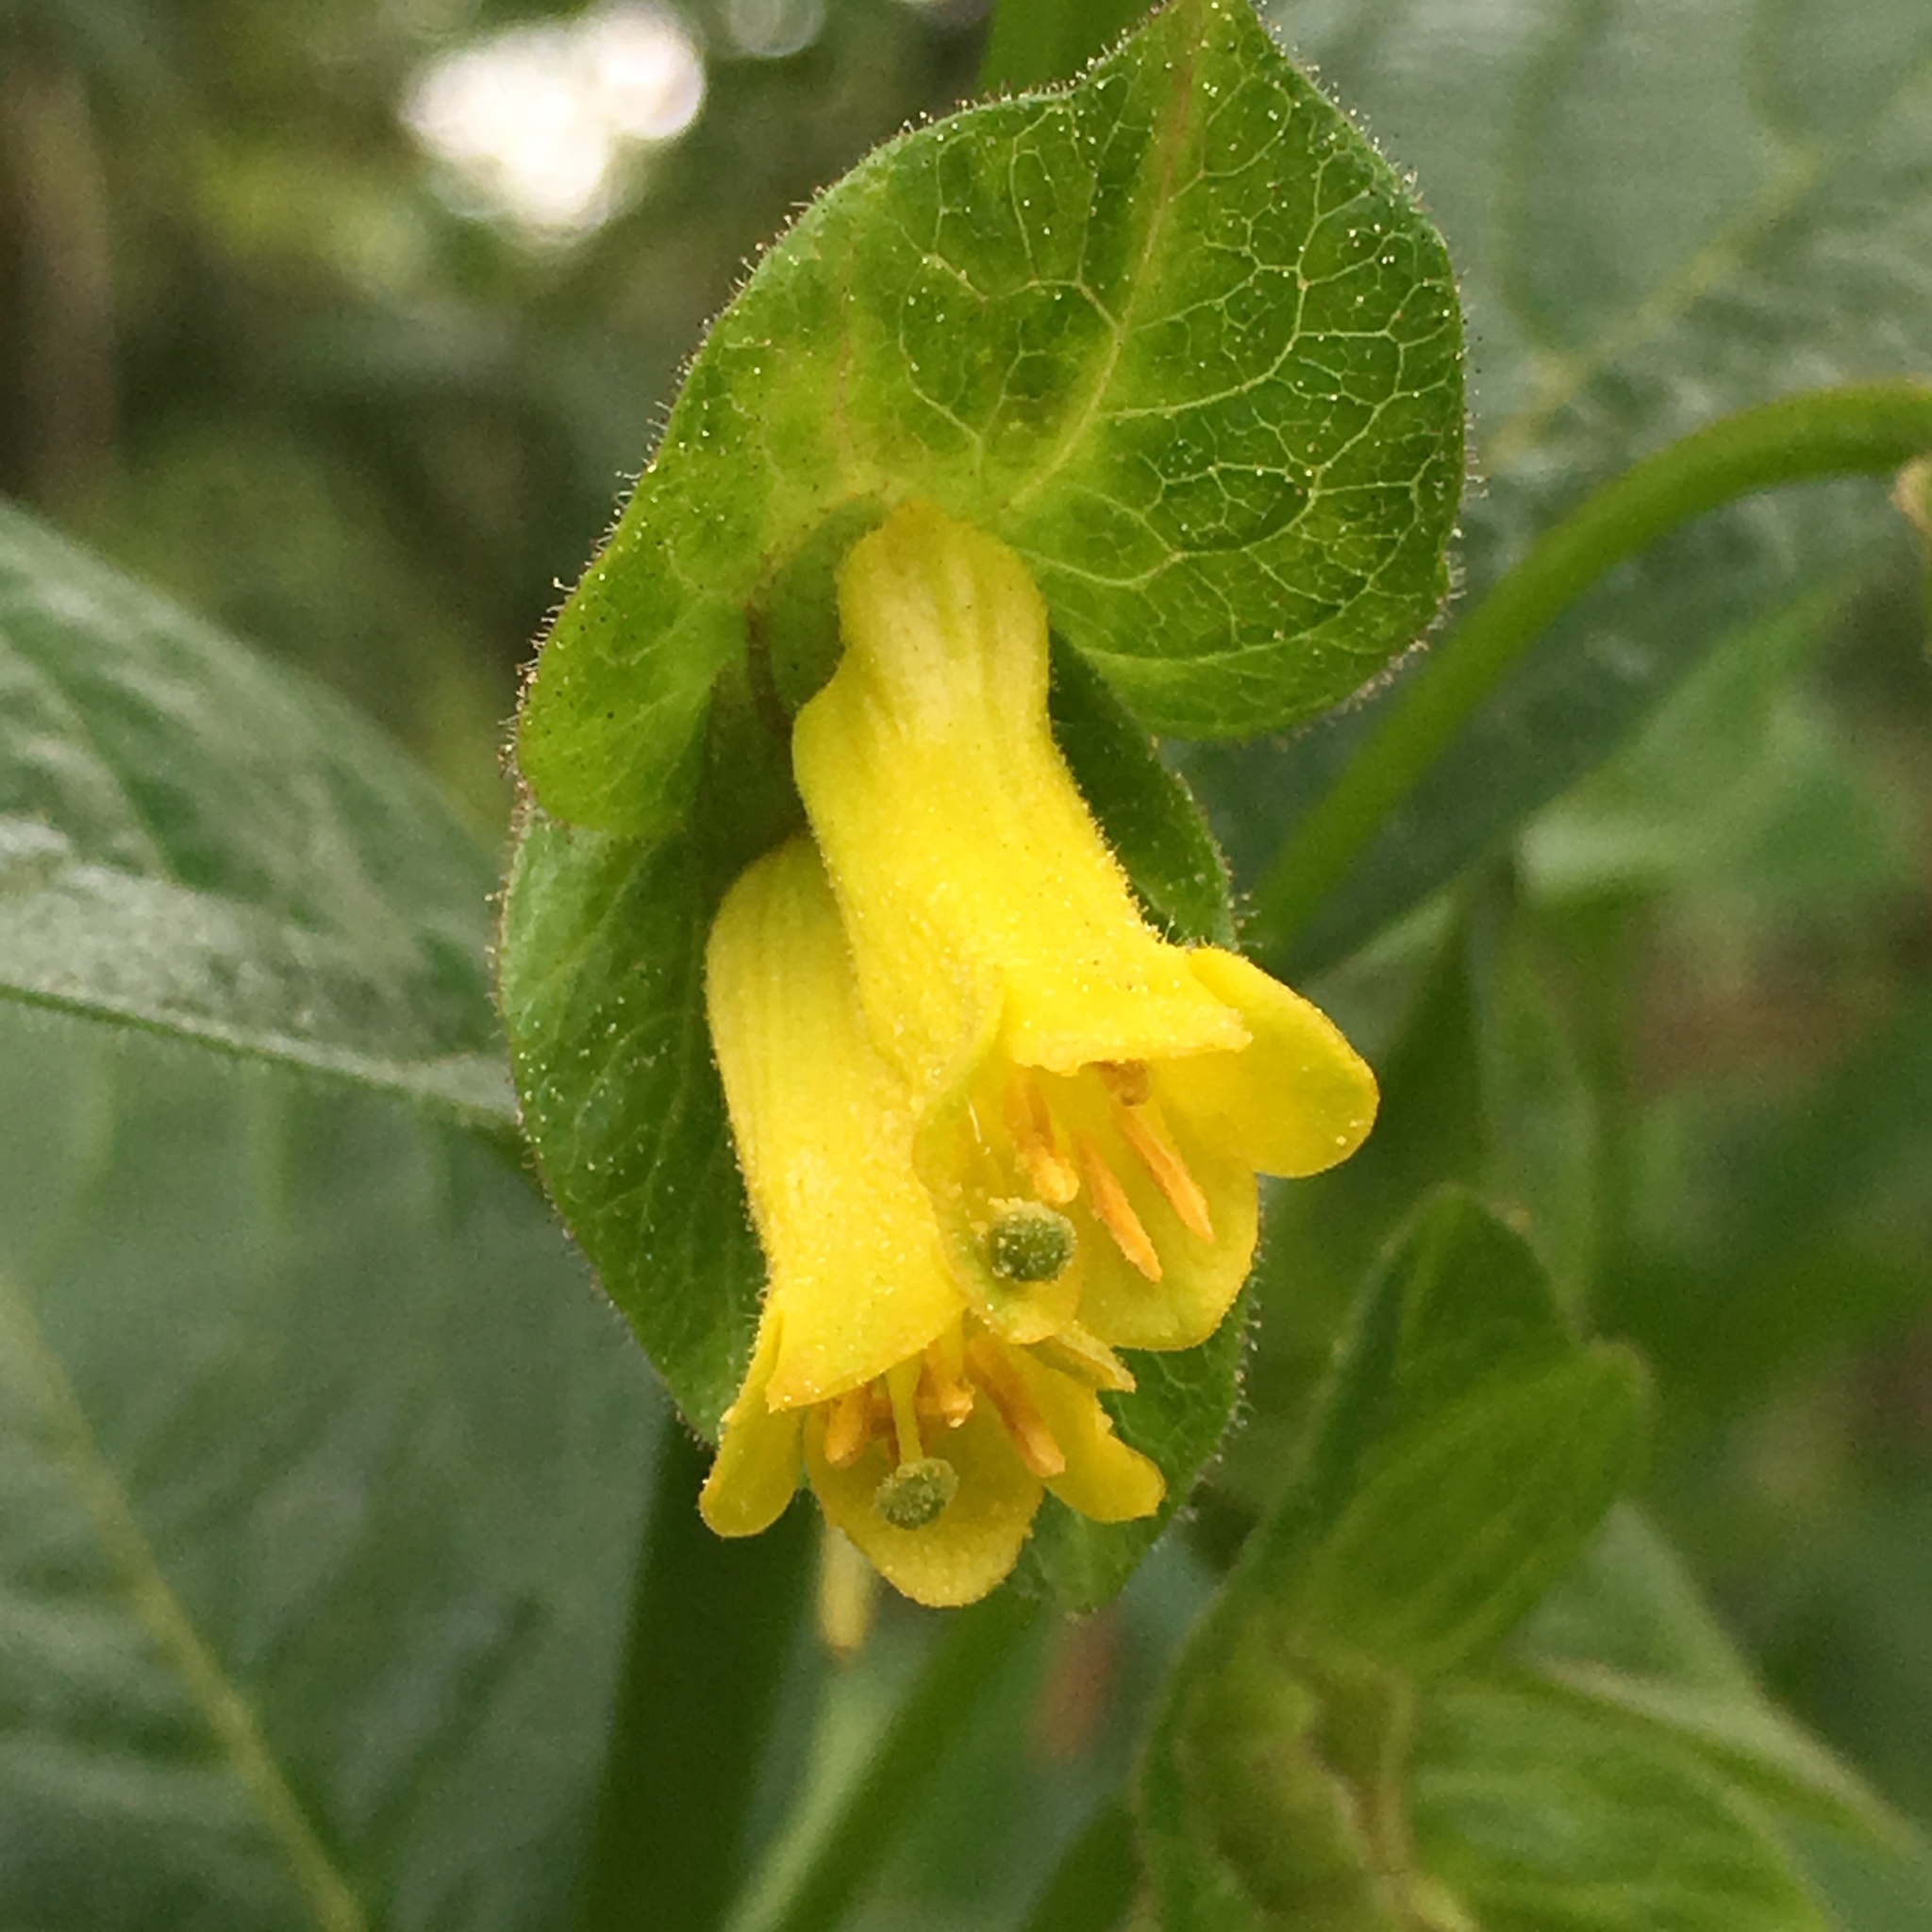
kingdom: Plantae
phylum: Tracheophyta
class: Magnoliopsida
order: Dipsacales
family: Caprifoliaceae
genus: Lonicera
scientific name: Lonicera involucrata
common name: Californian honeysuckle
